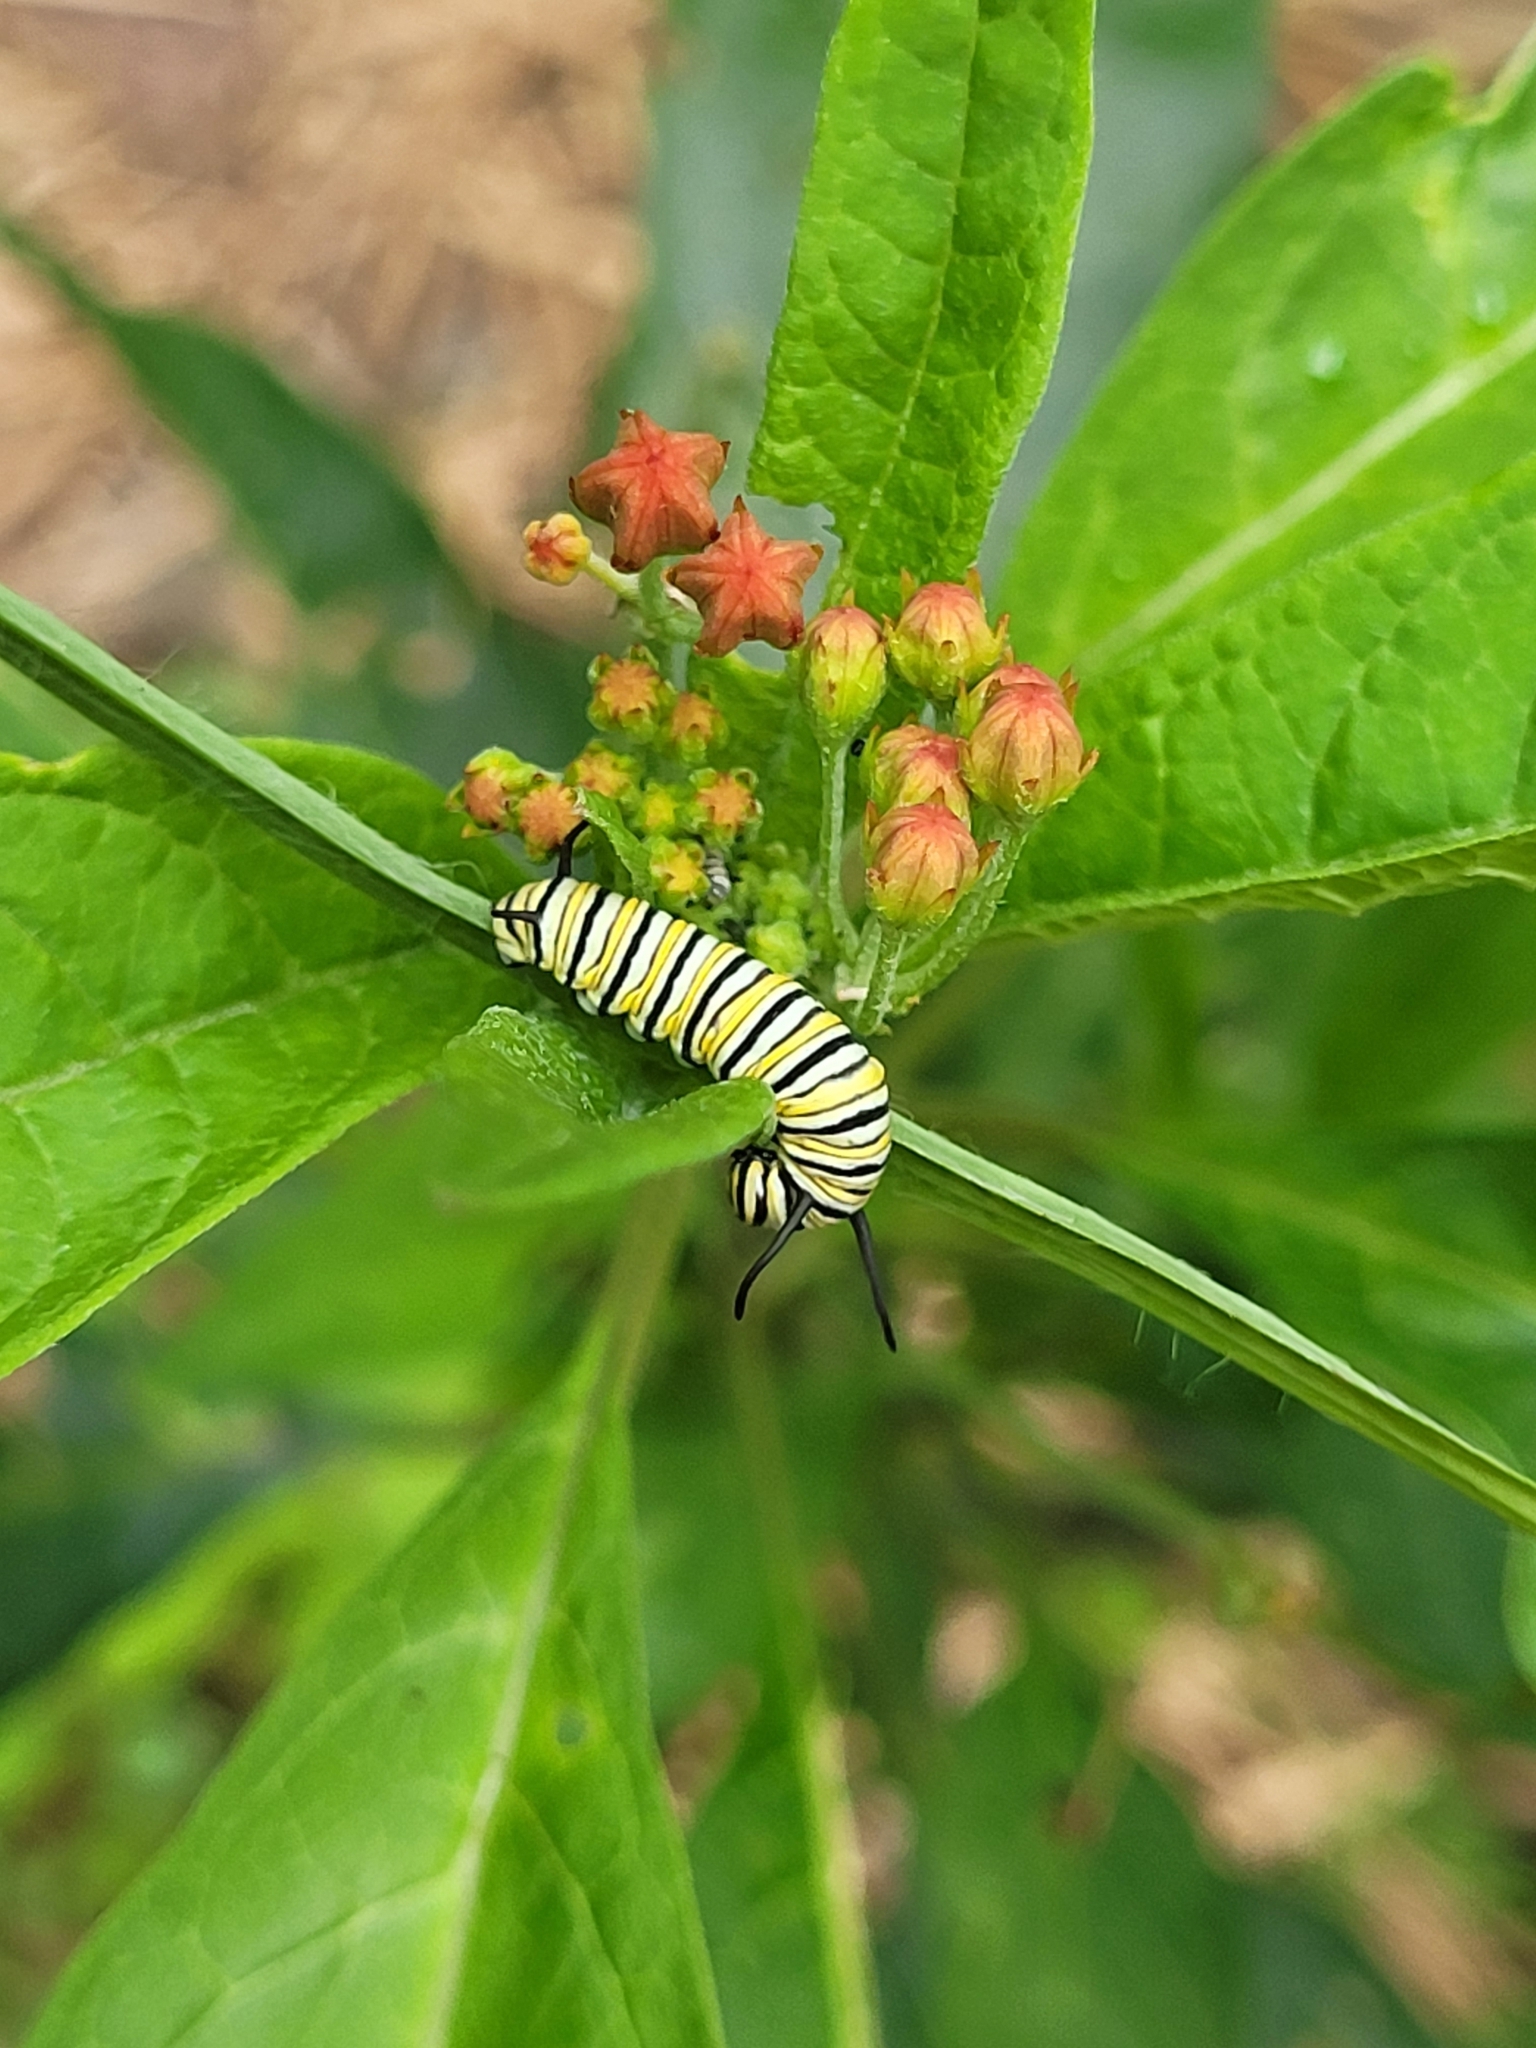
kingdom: Animalia
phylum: Arthropoda
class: Insecta
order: Lepidoptera
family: Nymphalidae
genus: Danaus
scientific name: Danaus plexippus
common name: Monarch
